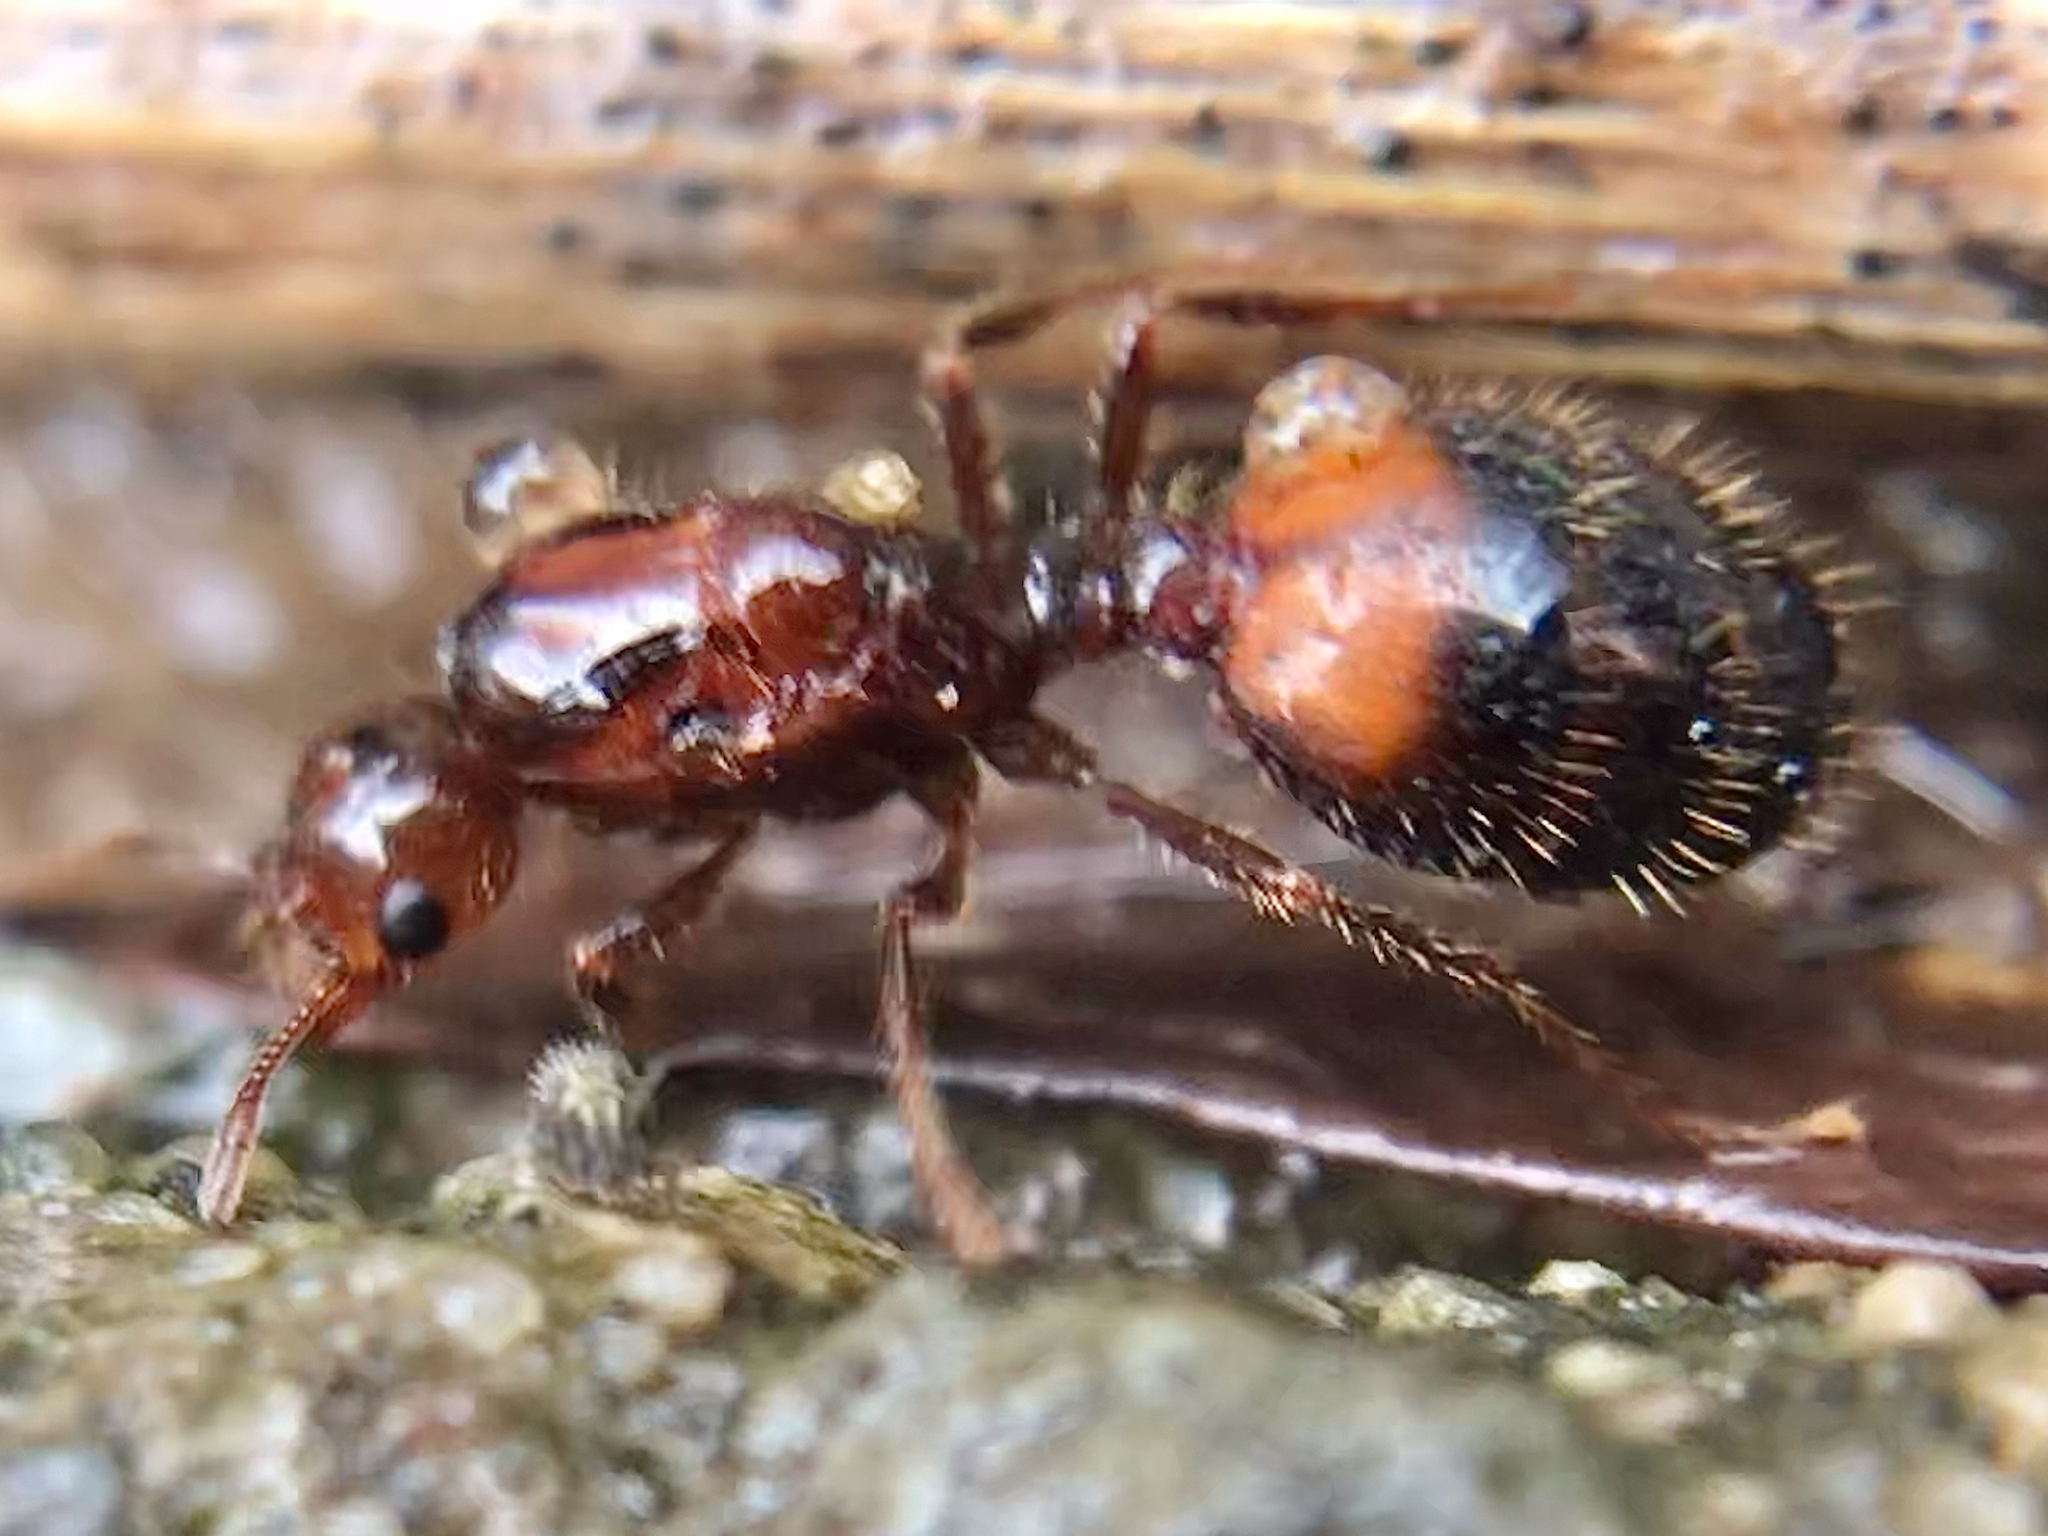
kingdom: Animalia
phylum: Arthropoda
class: Insecta
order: Hymenoptera
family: Formicidae
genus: Solenopsis
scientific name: Solenopsis
